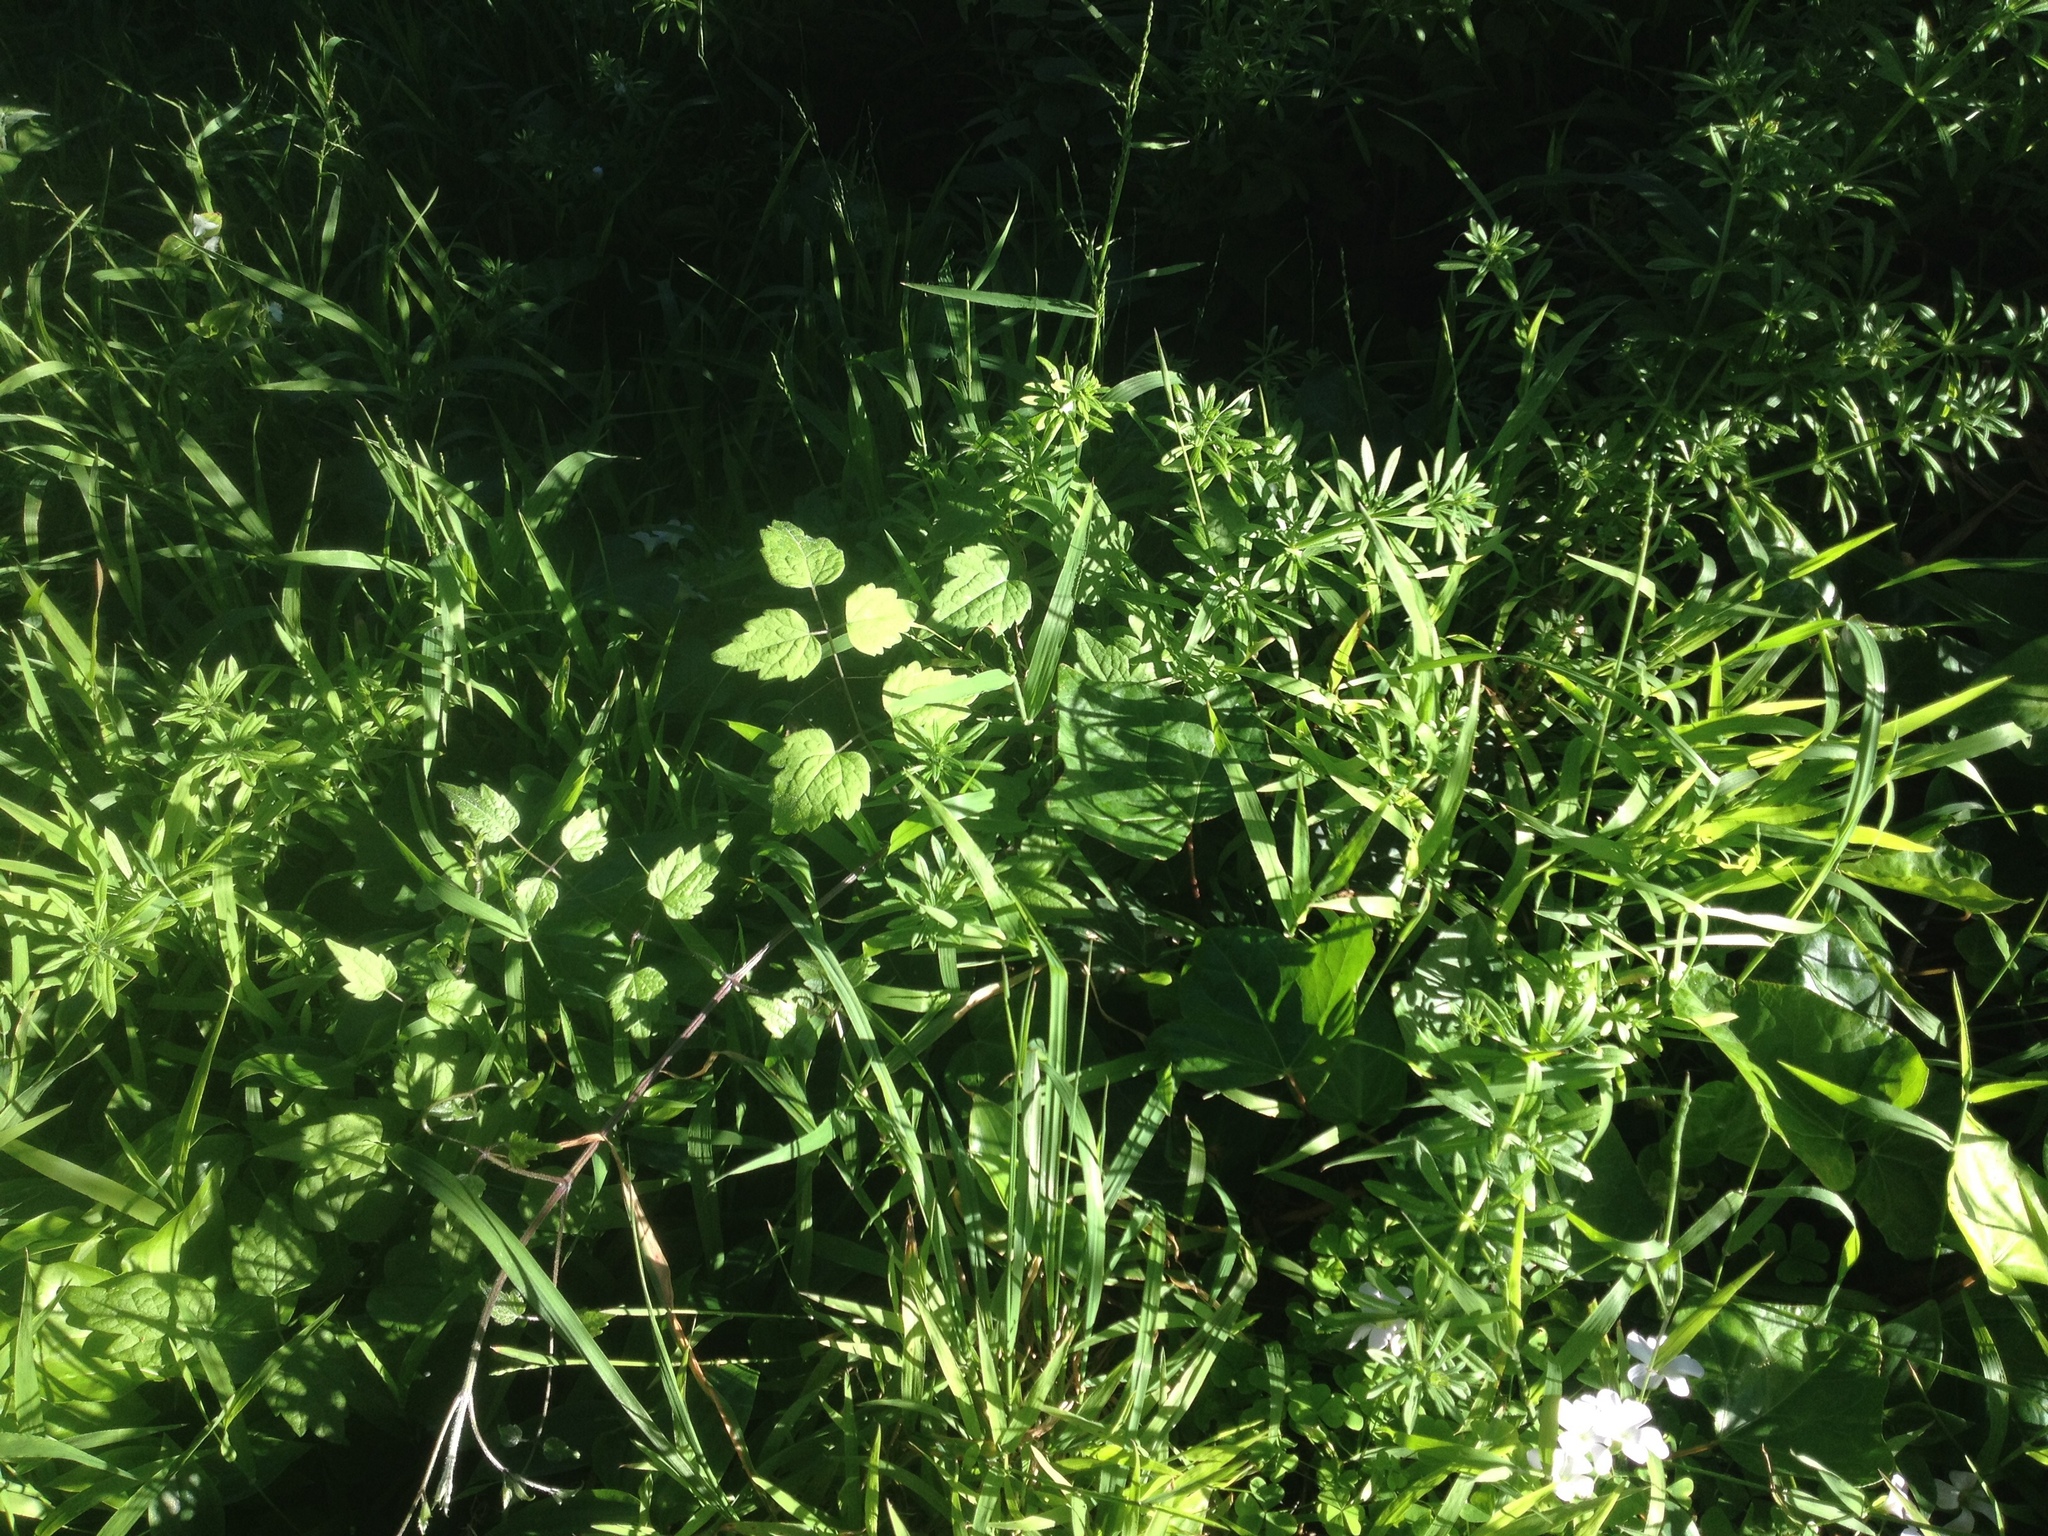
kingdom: Plantae
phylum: Tracheophyta
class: Magnoliopsida
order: Ranunculales
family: Ranunculaceae
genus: Clematis
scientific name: Clematis vitalba
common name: Evergreen clematis
